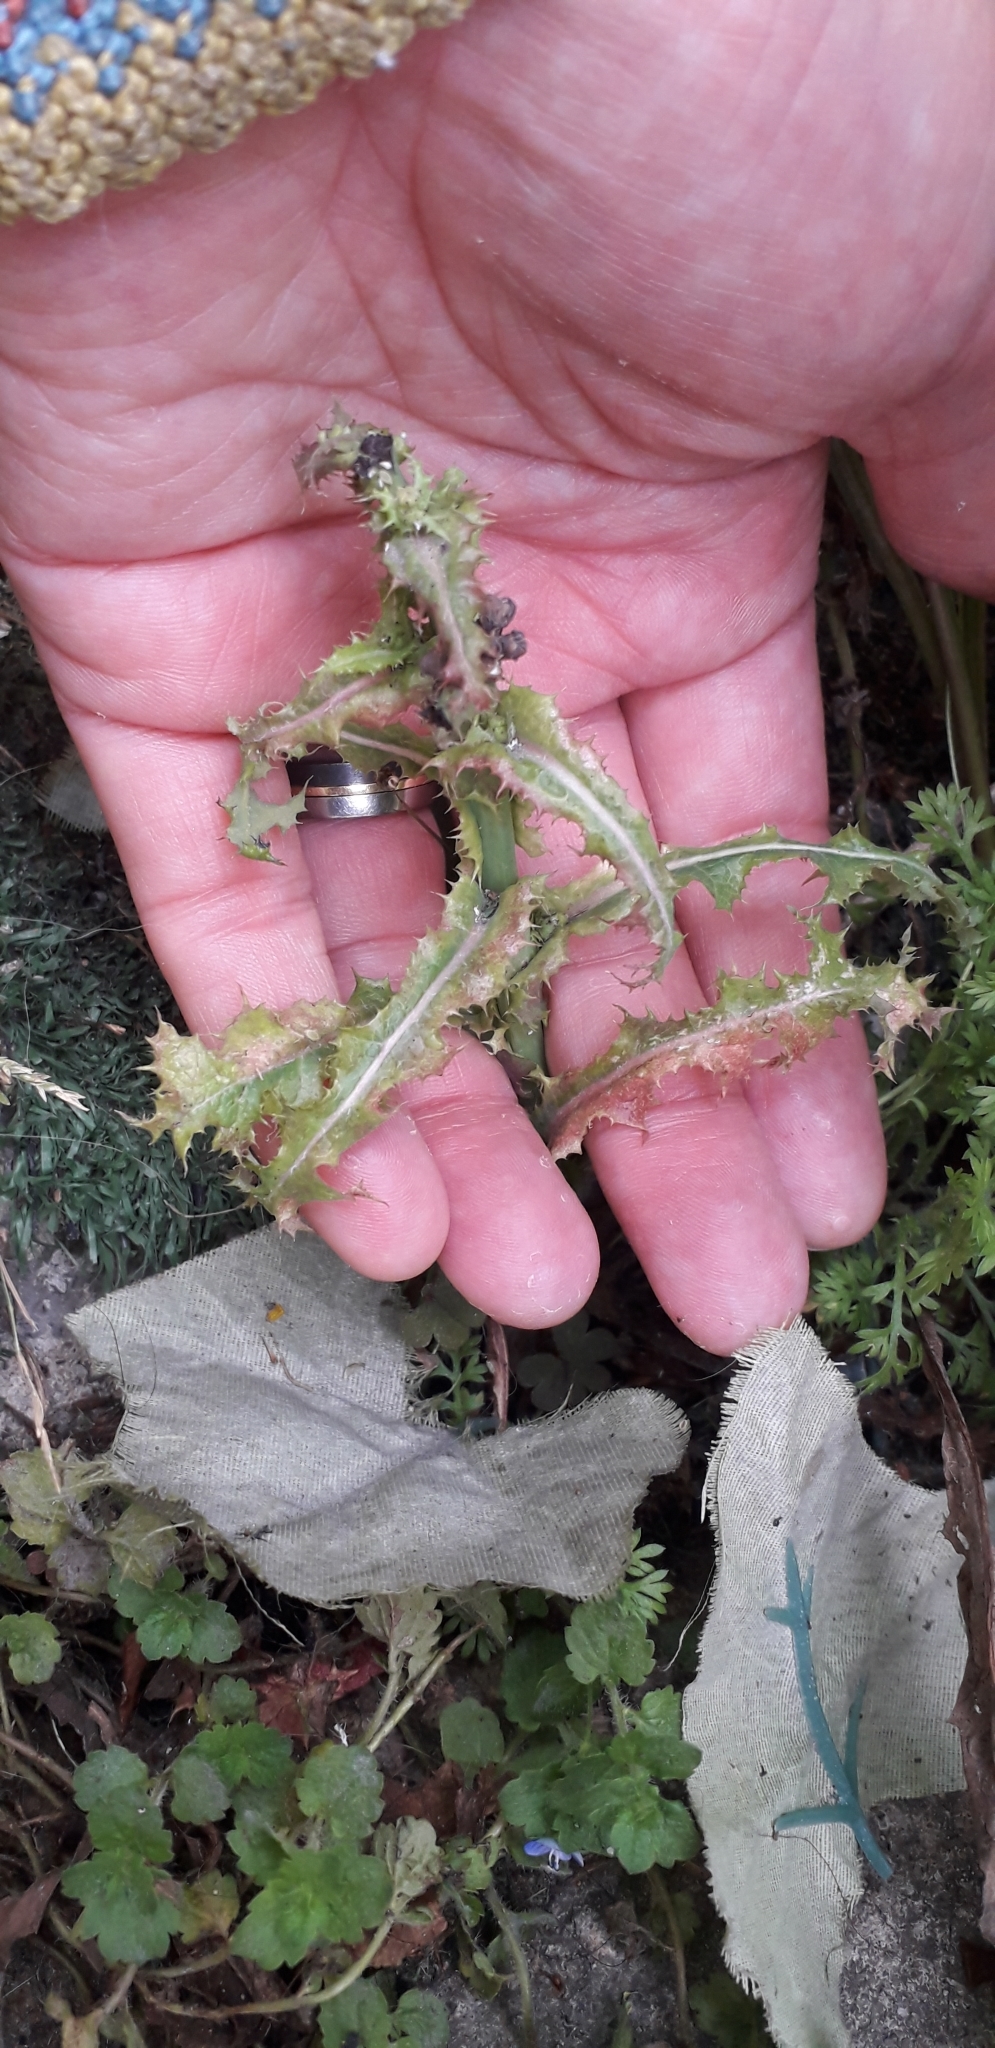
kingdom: Plantae
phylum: Tracheophyta
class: Magnoliopsida
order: Asterales
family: Asteraceae
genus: Sonchus
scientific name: Sonchus asper
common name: Prickly sow-thistle
